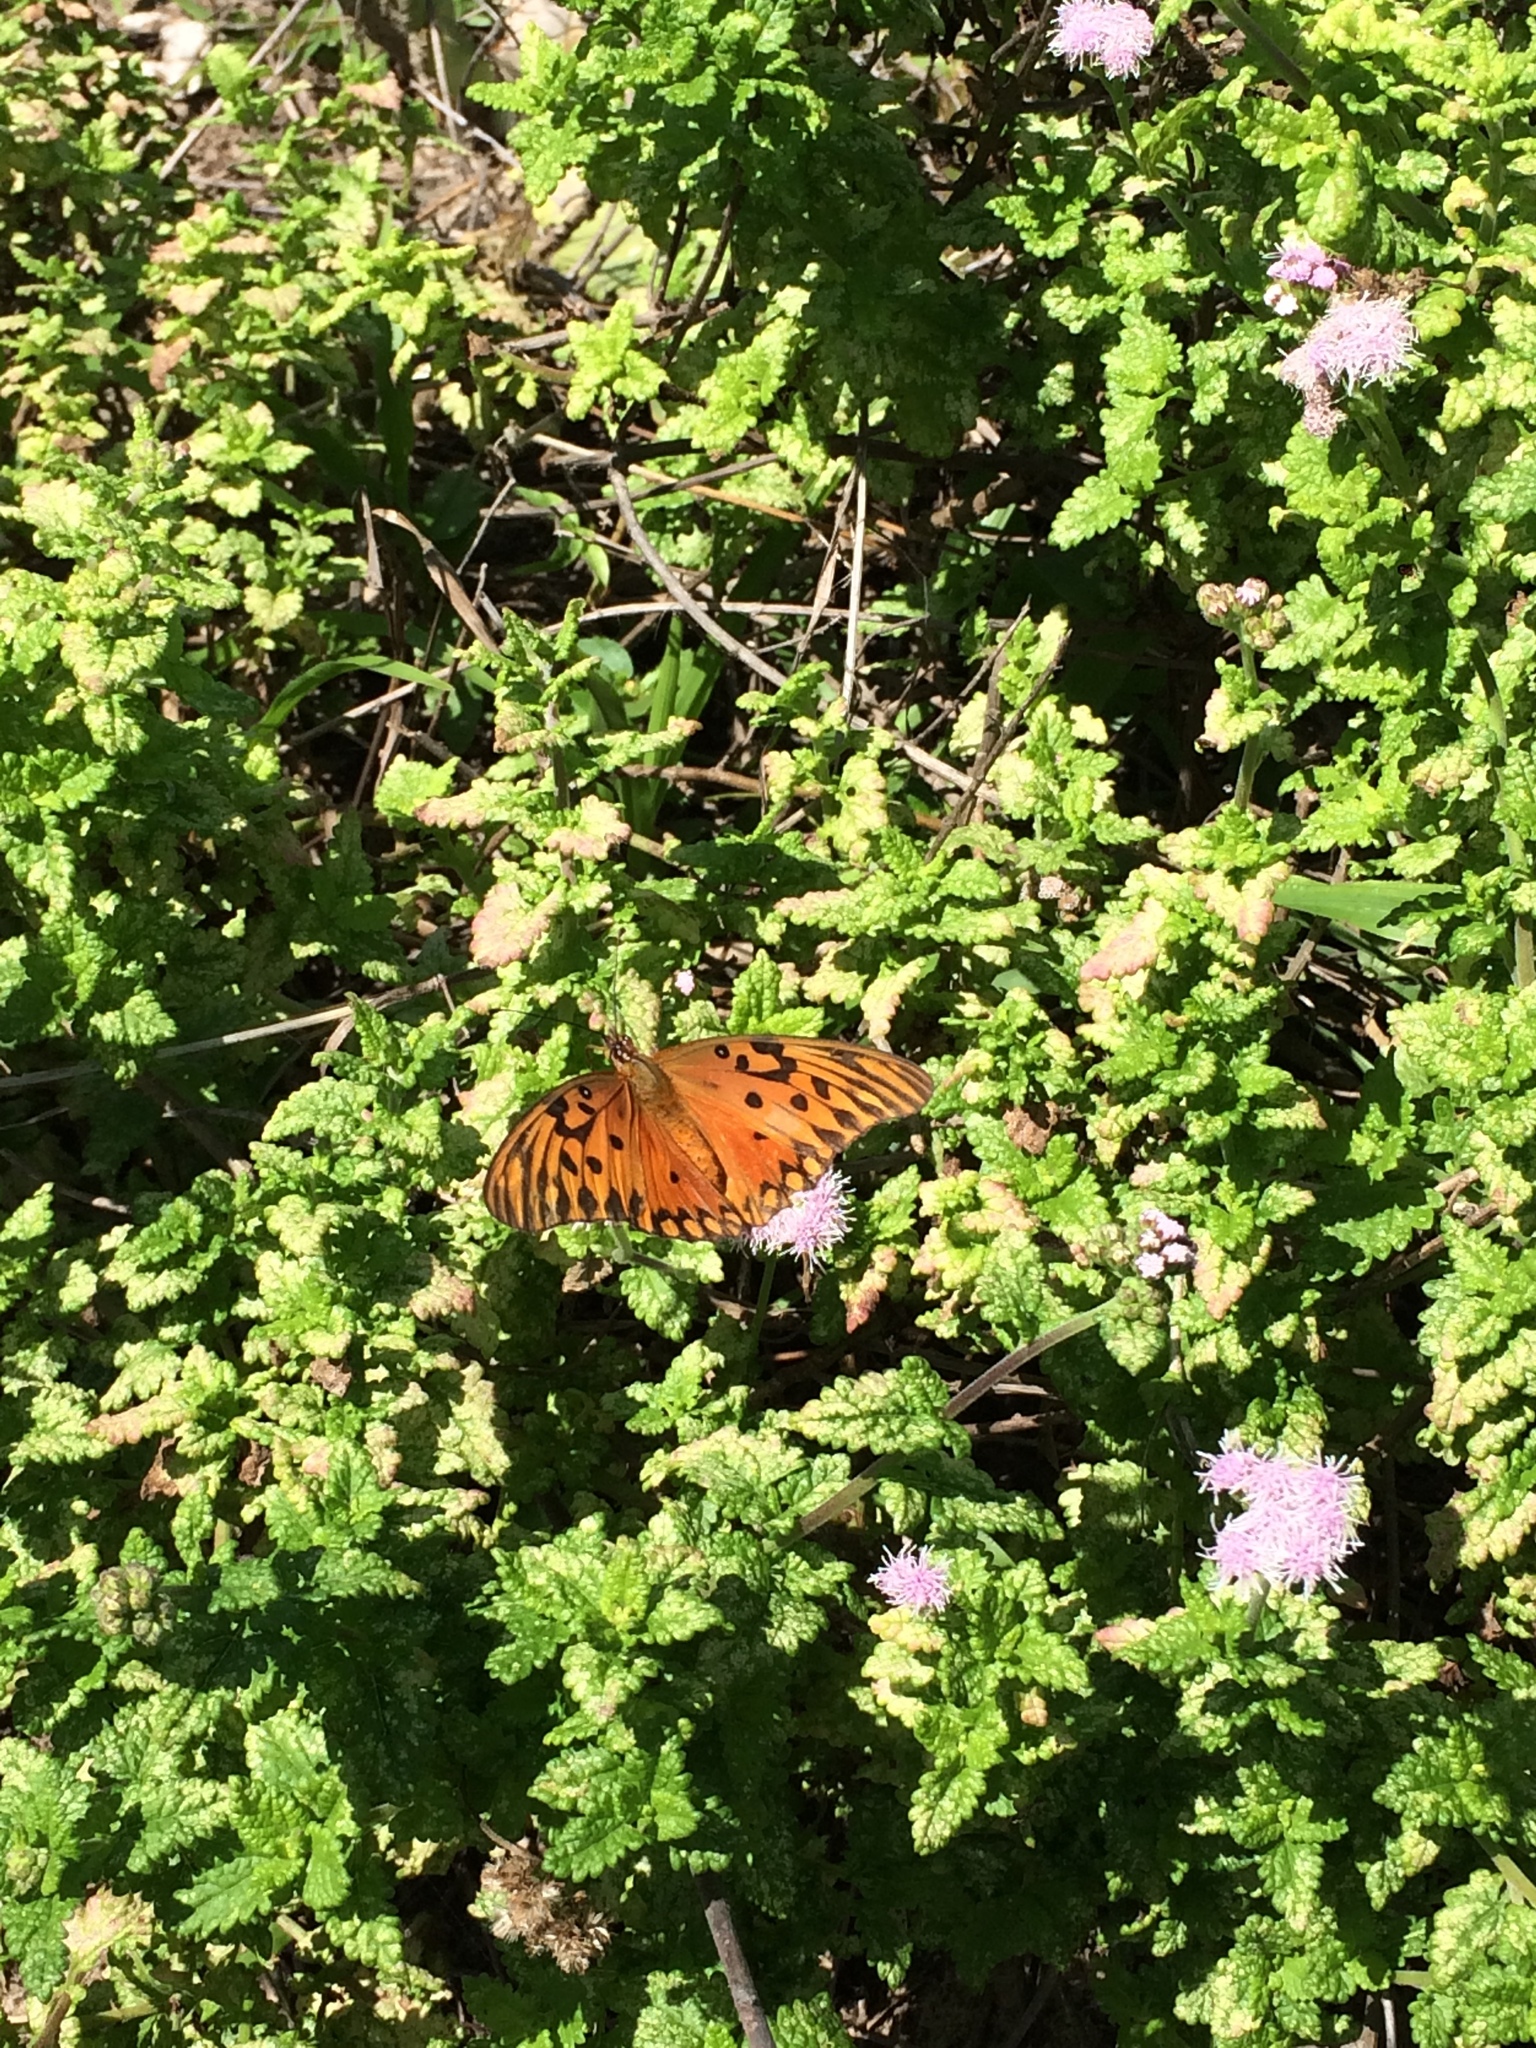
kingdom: Animalia
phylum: Arthropoda
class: Insecta
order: Lepidoptera
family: Nymphalidae
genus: Dione
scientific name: Dione vanillae
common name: Gulf fritillary
